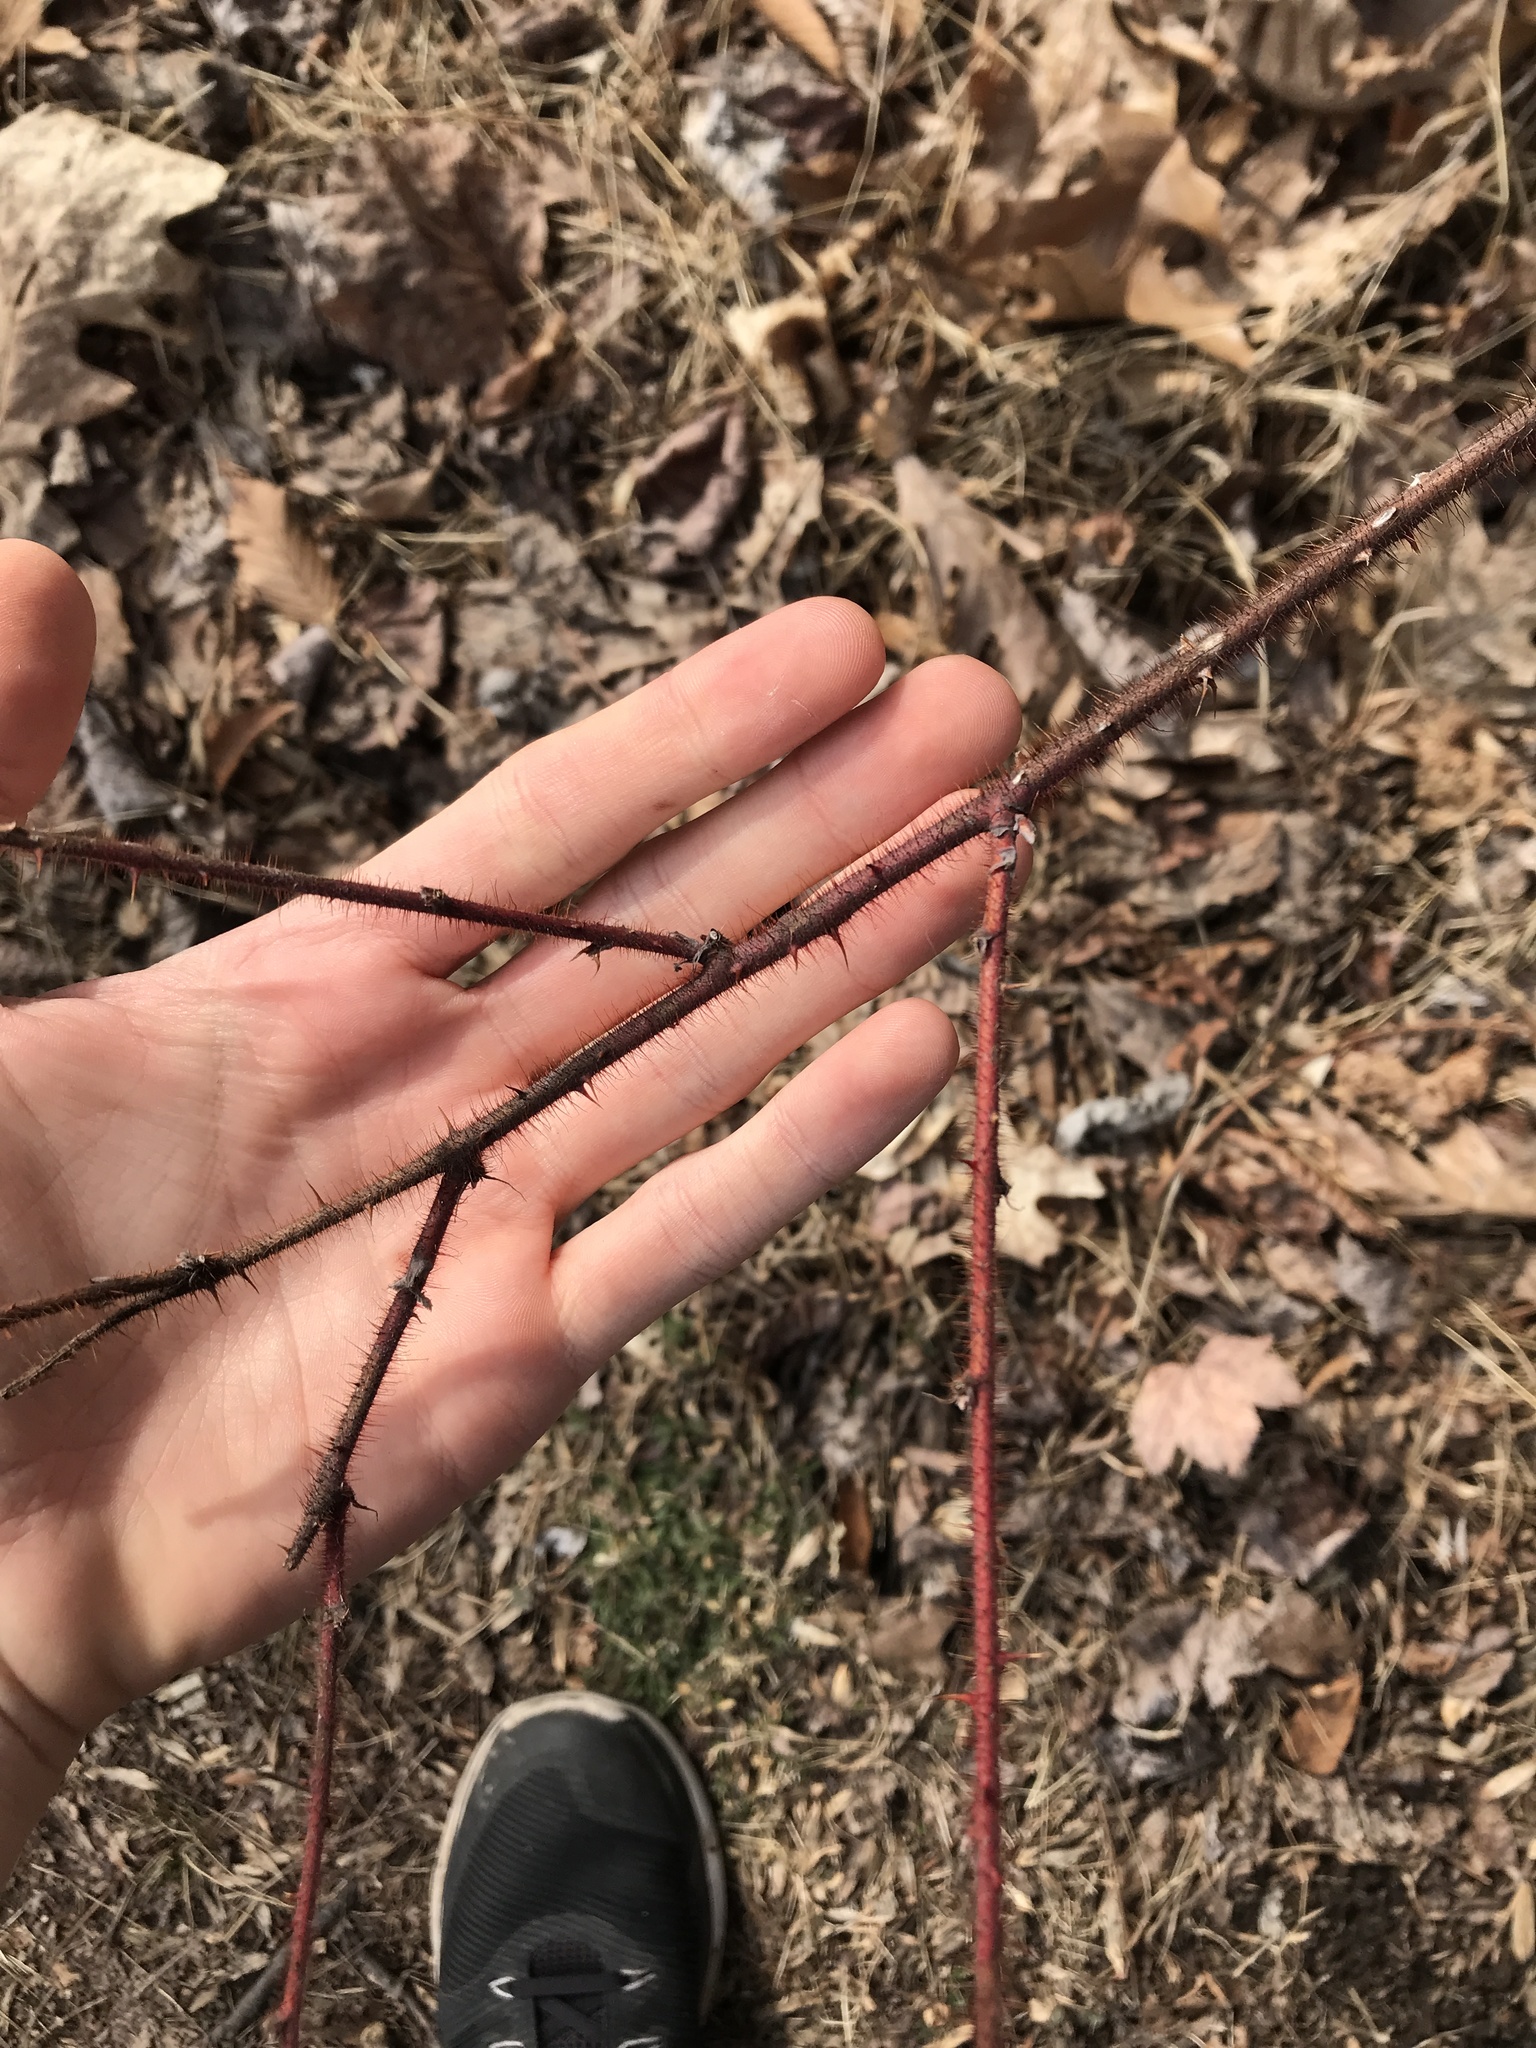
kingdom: Plantae
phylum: Tracheophyta
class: Magnoliopsida
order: Rosales
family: Rosaceae
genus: Rubus
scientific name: Rubus phoenicolasius
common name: Japanese wineberry
